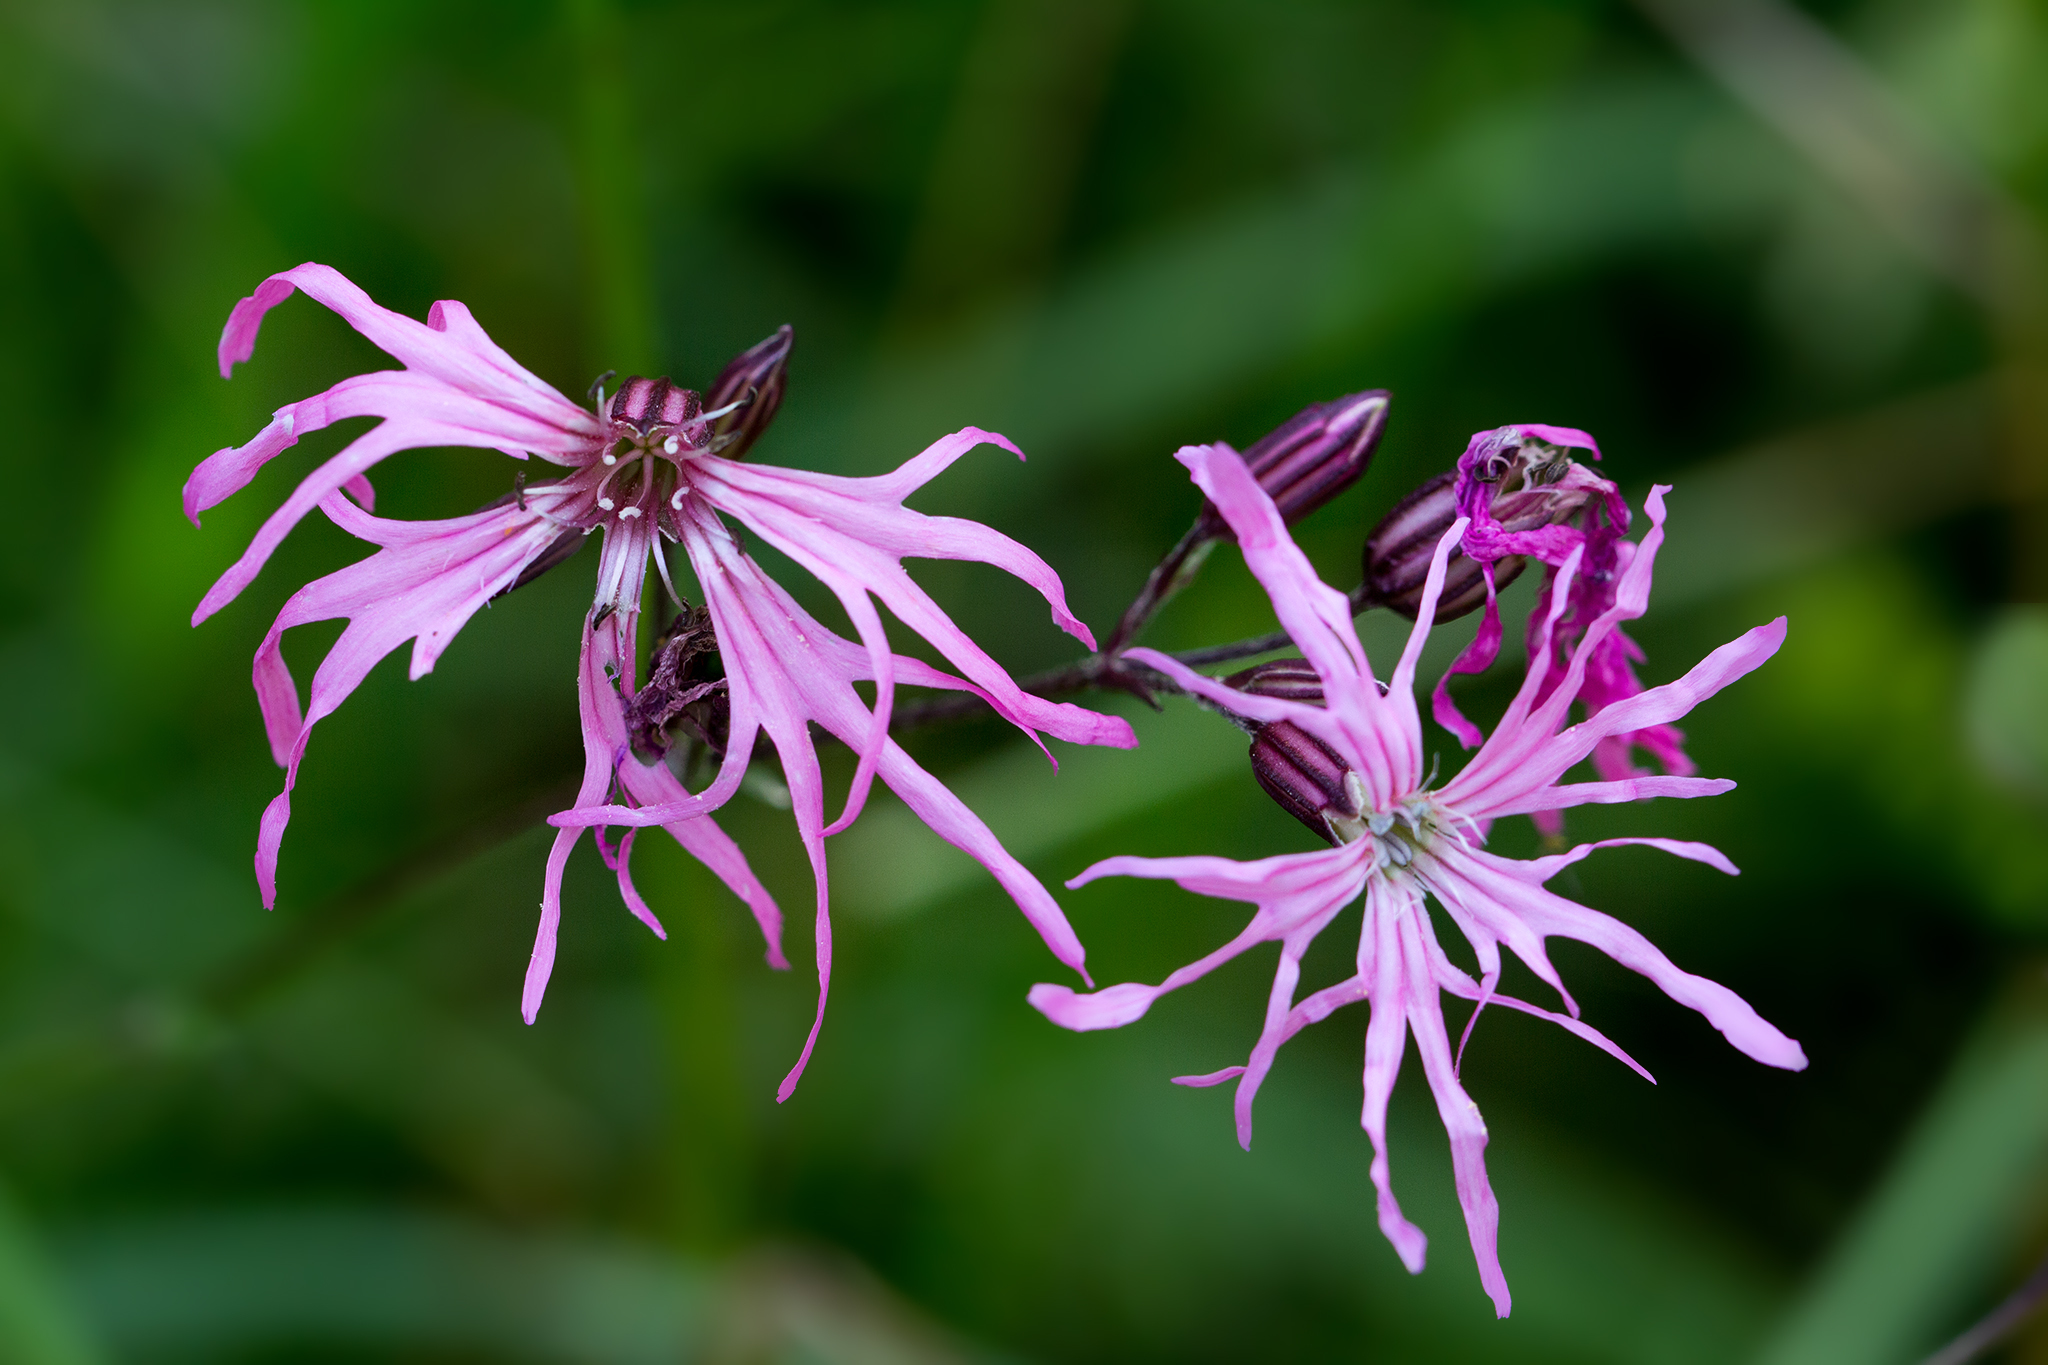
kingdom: Plantae
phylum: Tracheophyta
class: Magnoliopsida
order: Caryophyllales
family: Caryophyllaceae
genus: Silene
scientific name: Silene flos-cuculi
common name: Ragged-robin
